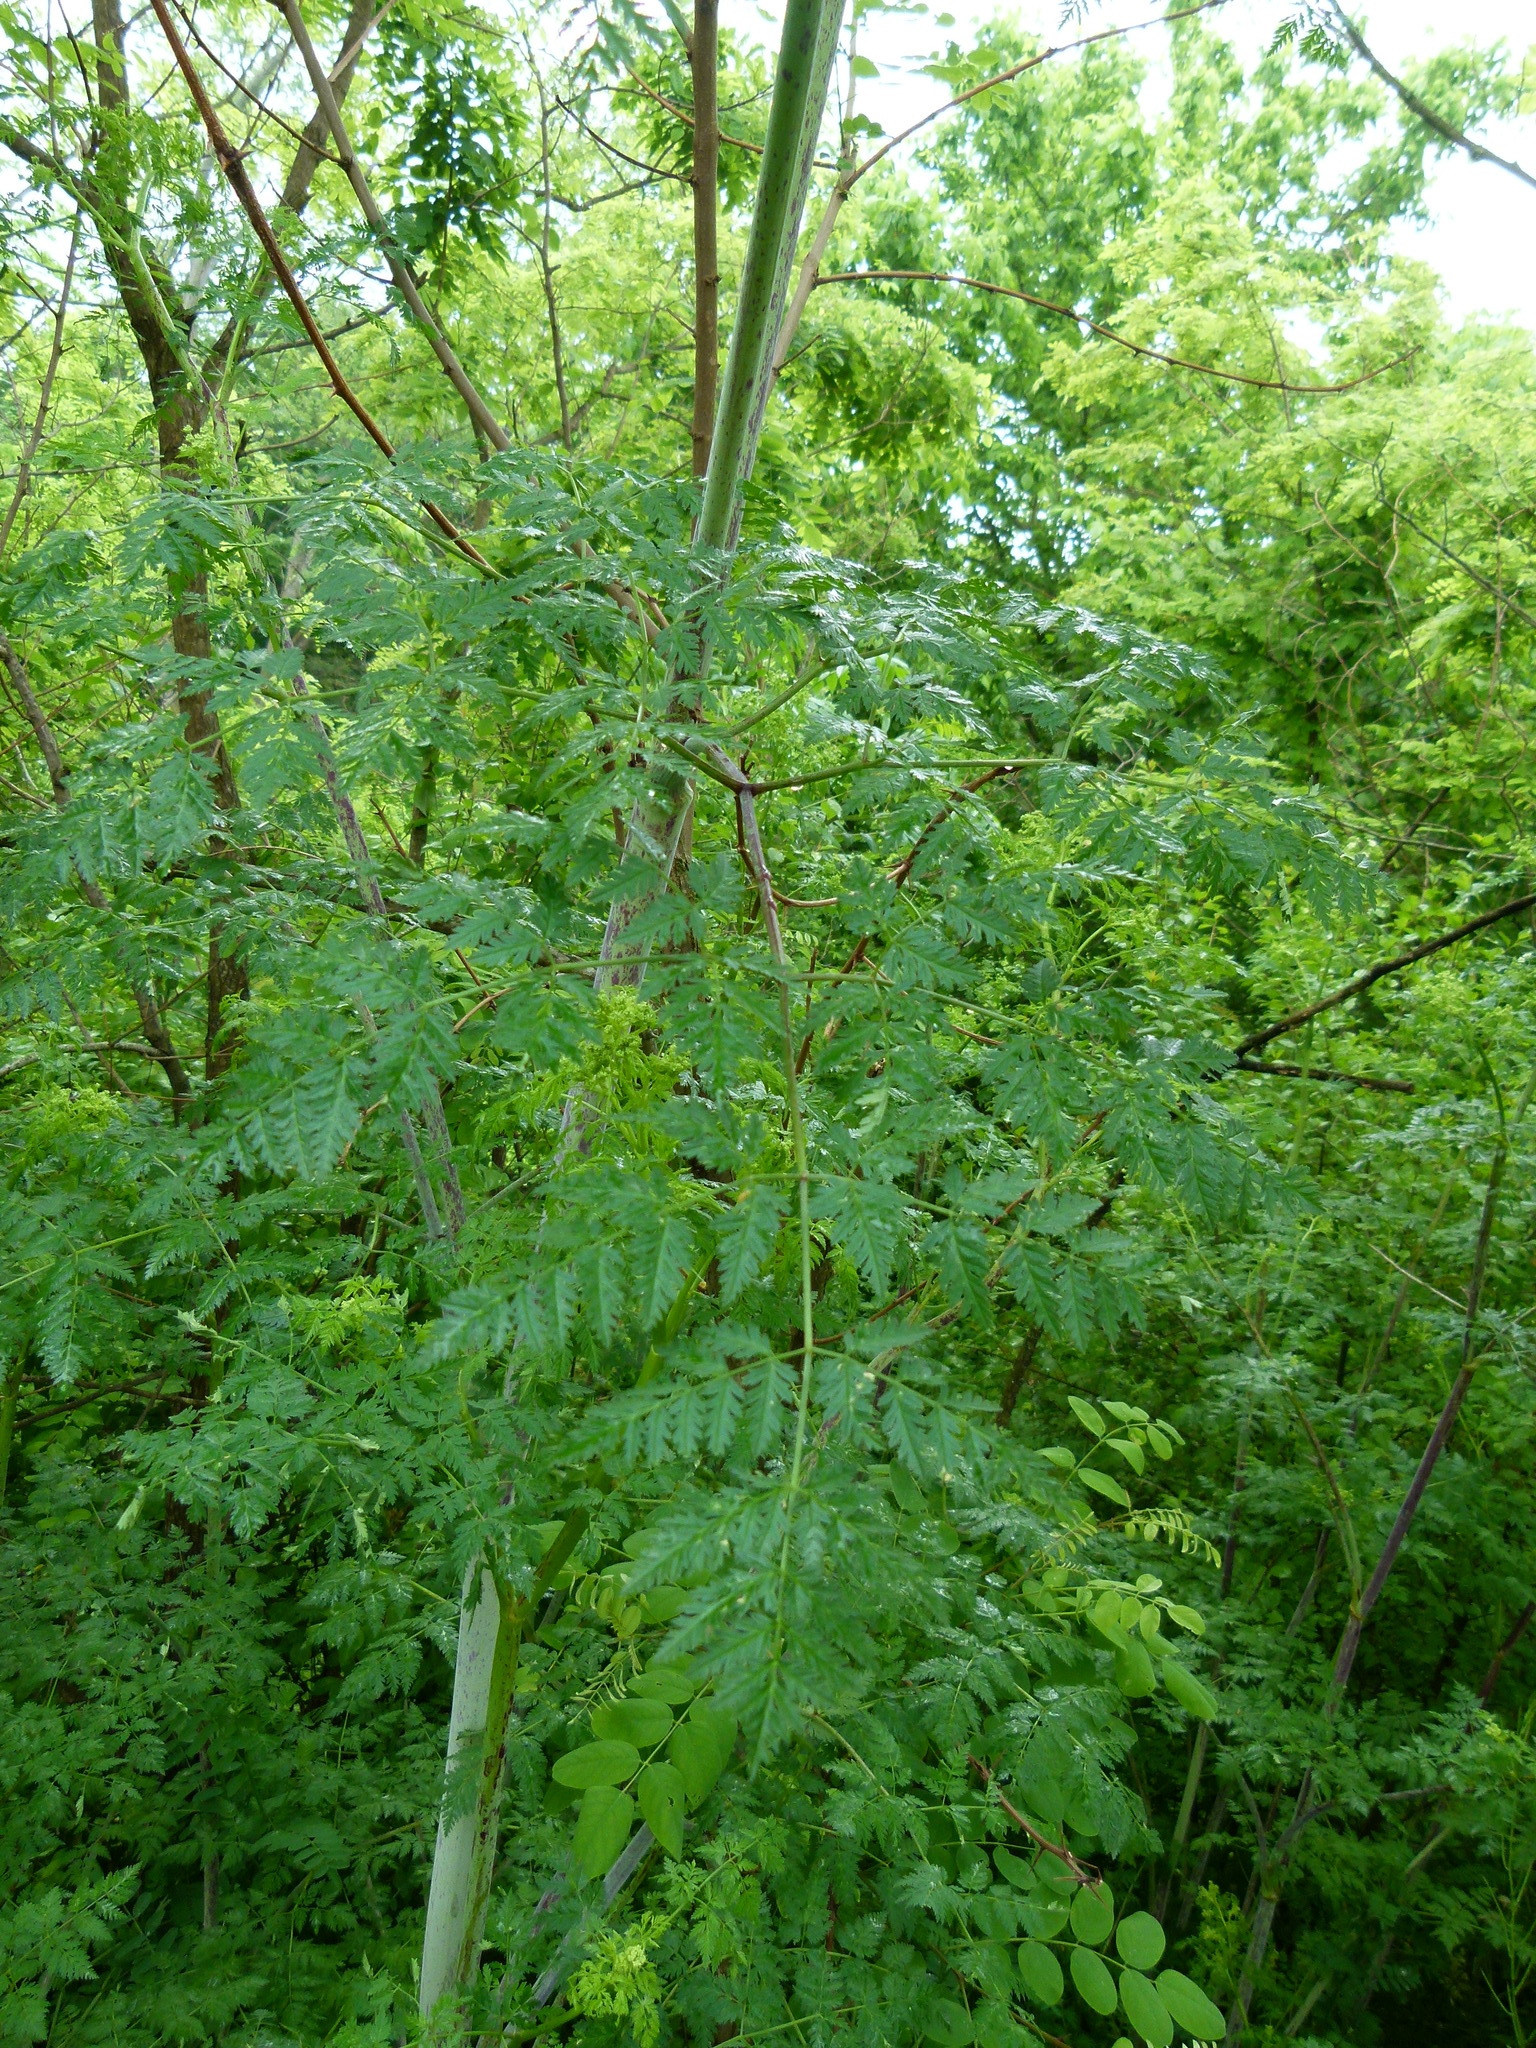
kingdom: Plantae
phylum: Tracheophyta
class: Magnoliopsida
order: Apiales
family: Apiaceae
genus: Conium
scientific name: Conium maculatum
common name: Hemlock
